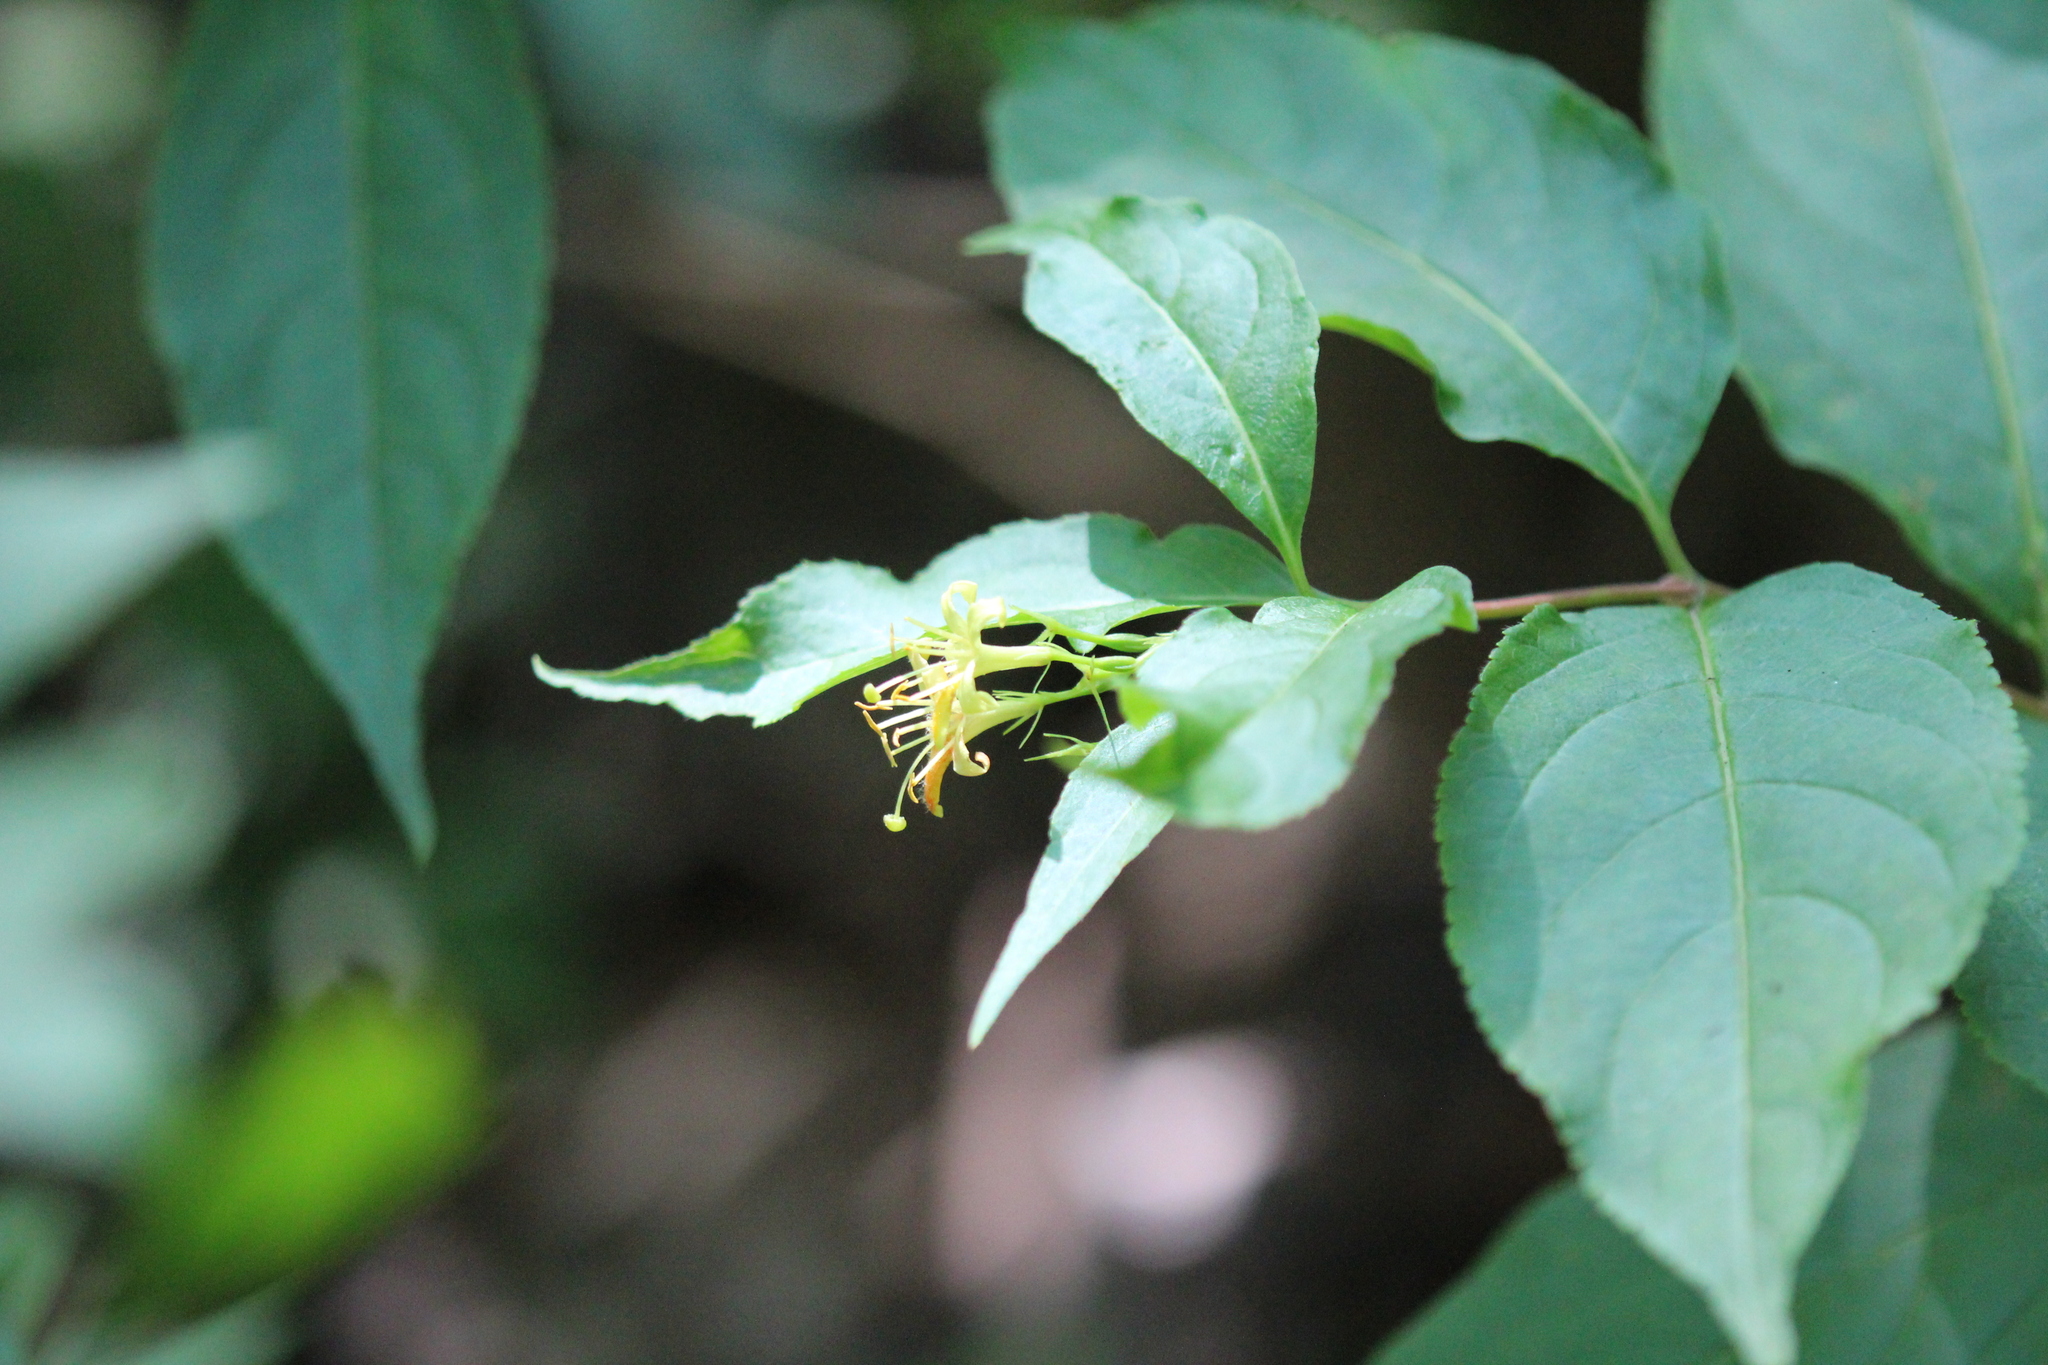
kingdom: Plantae
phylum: Tracheophyta
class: Magnoliopsida
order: Dipsacales
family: Caprifoliaceae
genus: Diervilla
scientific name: Diervilla lonicera
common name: Bush-honeysuckle
